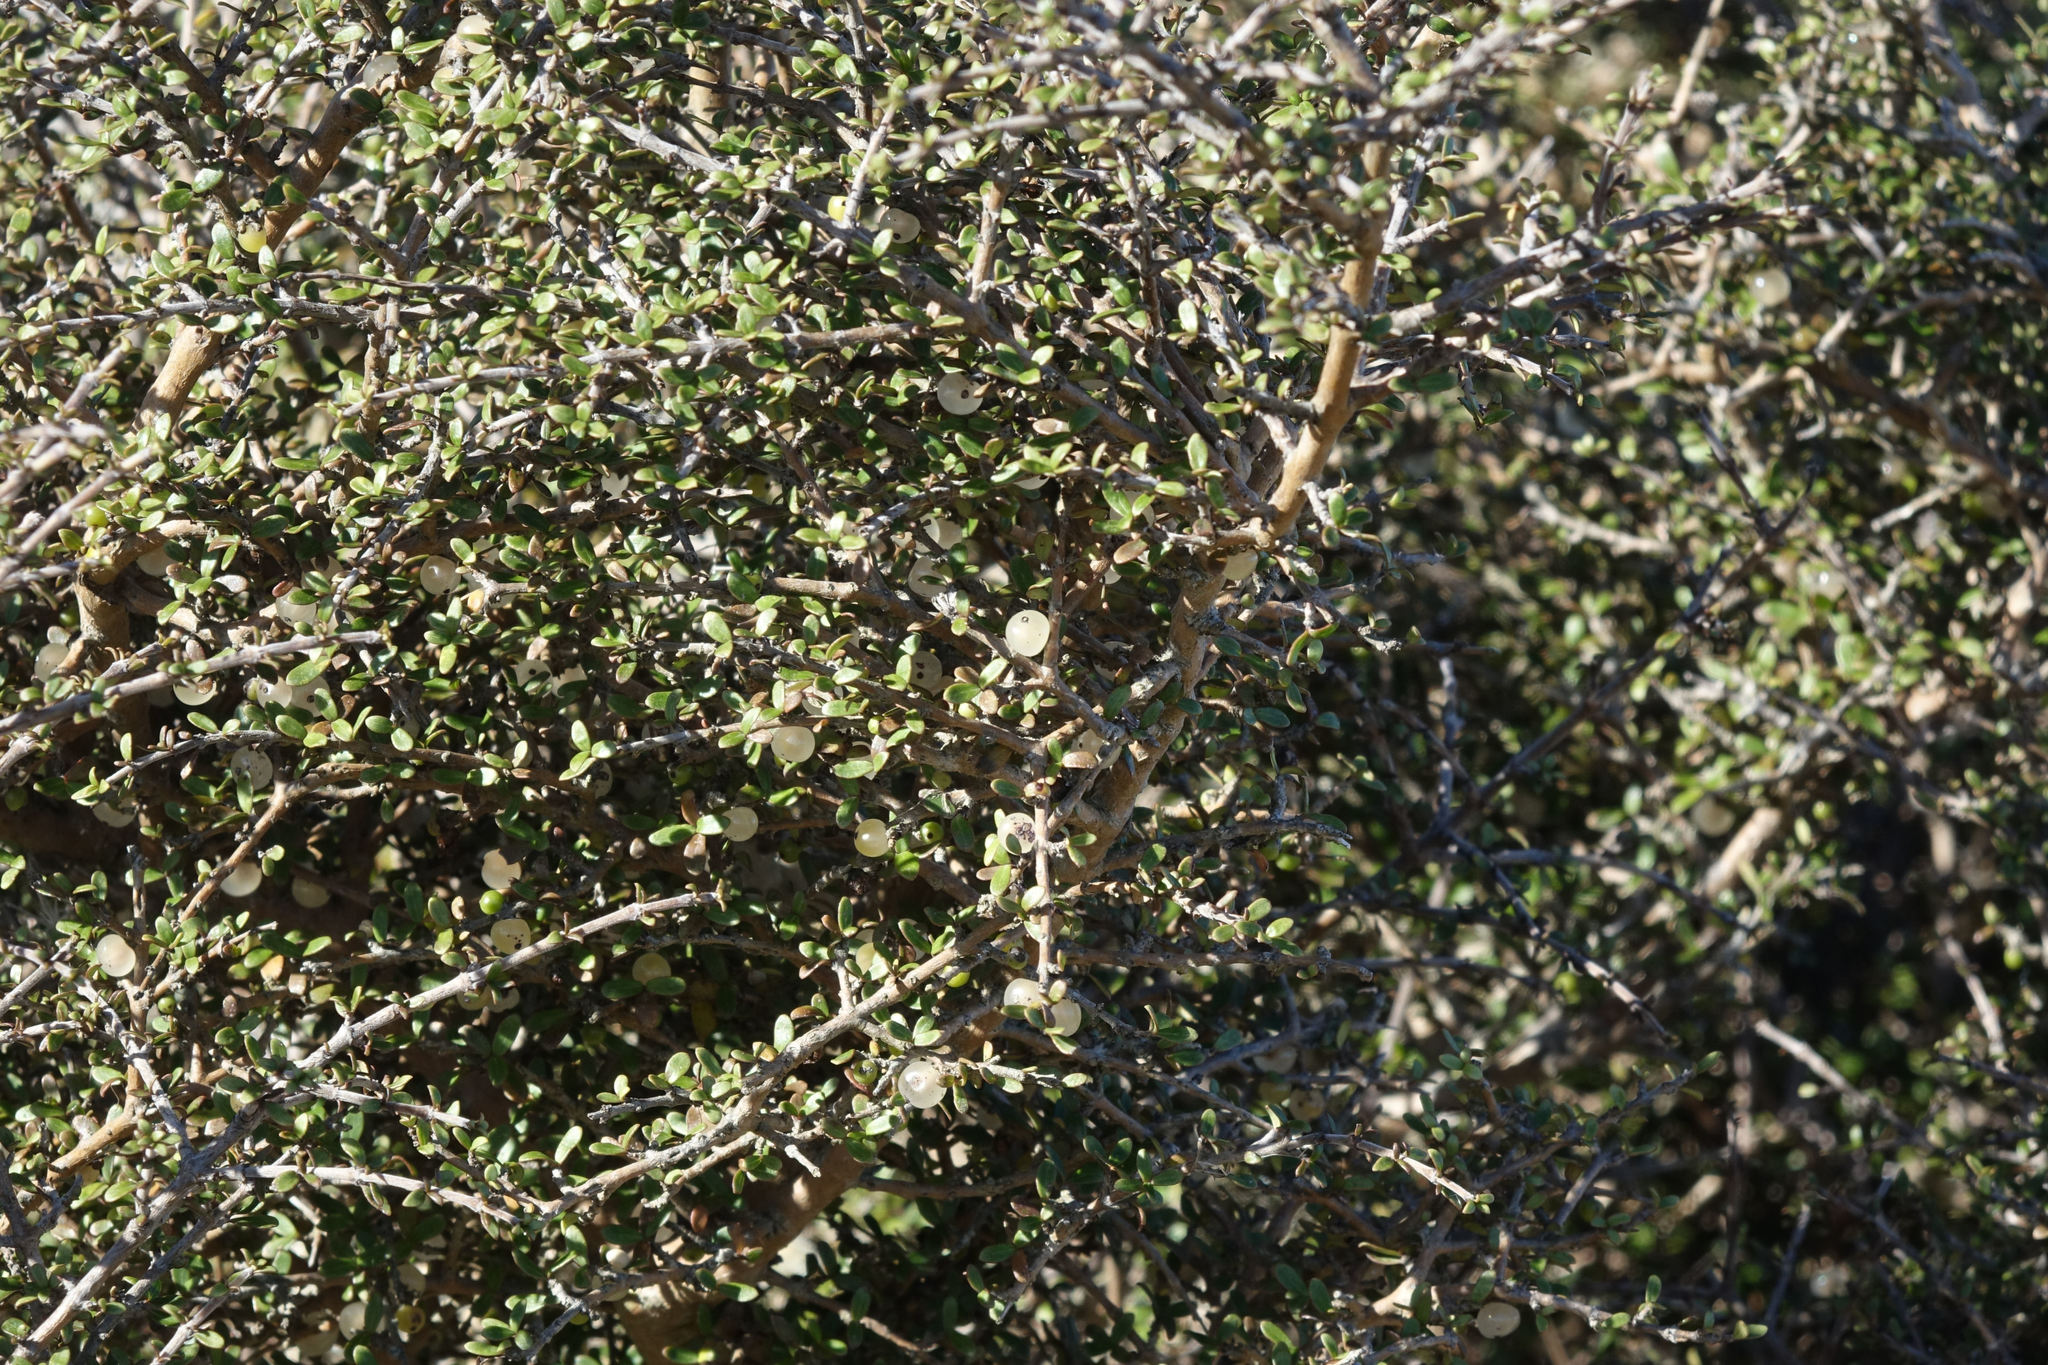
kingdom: Plantae
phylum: Tracheophyta
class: Magnoliopsida
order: Gentianales
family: Rubiaceae
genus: Coprosma
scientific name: Coprosma dumosa
